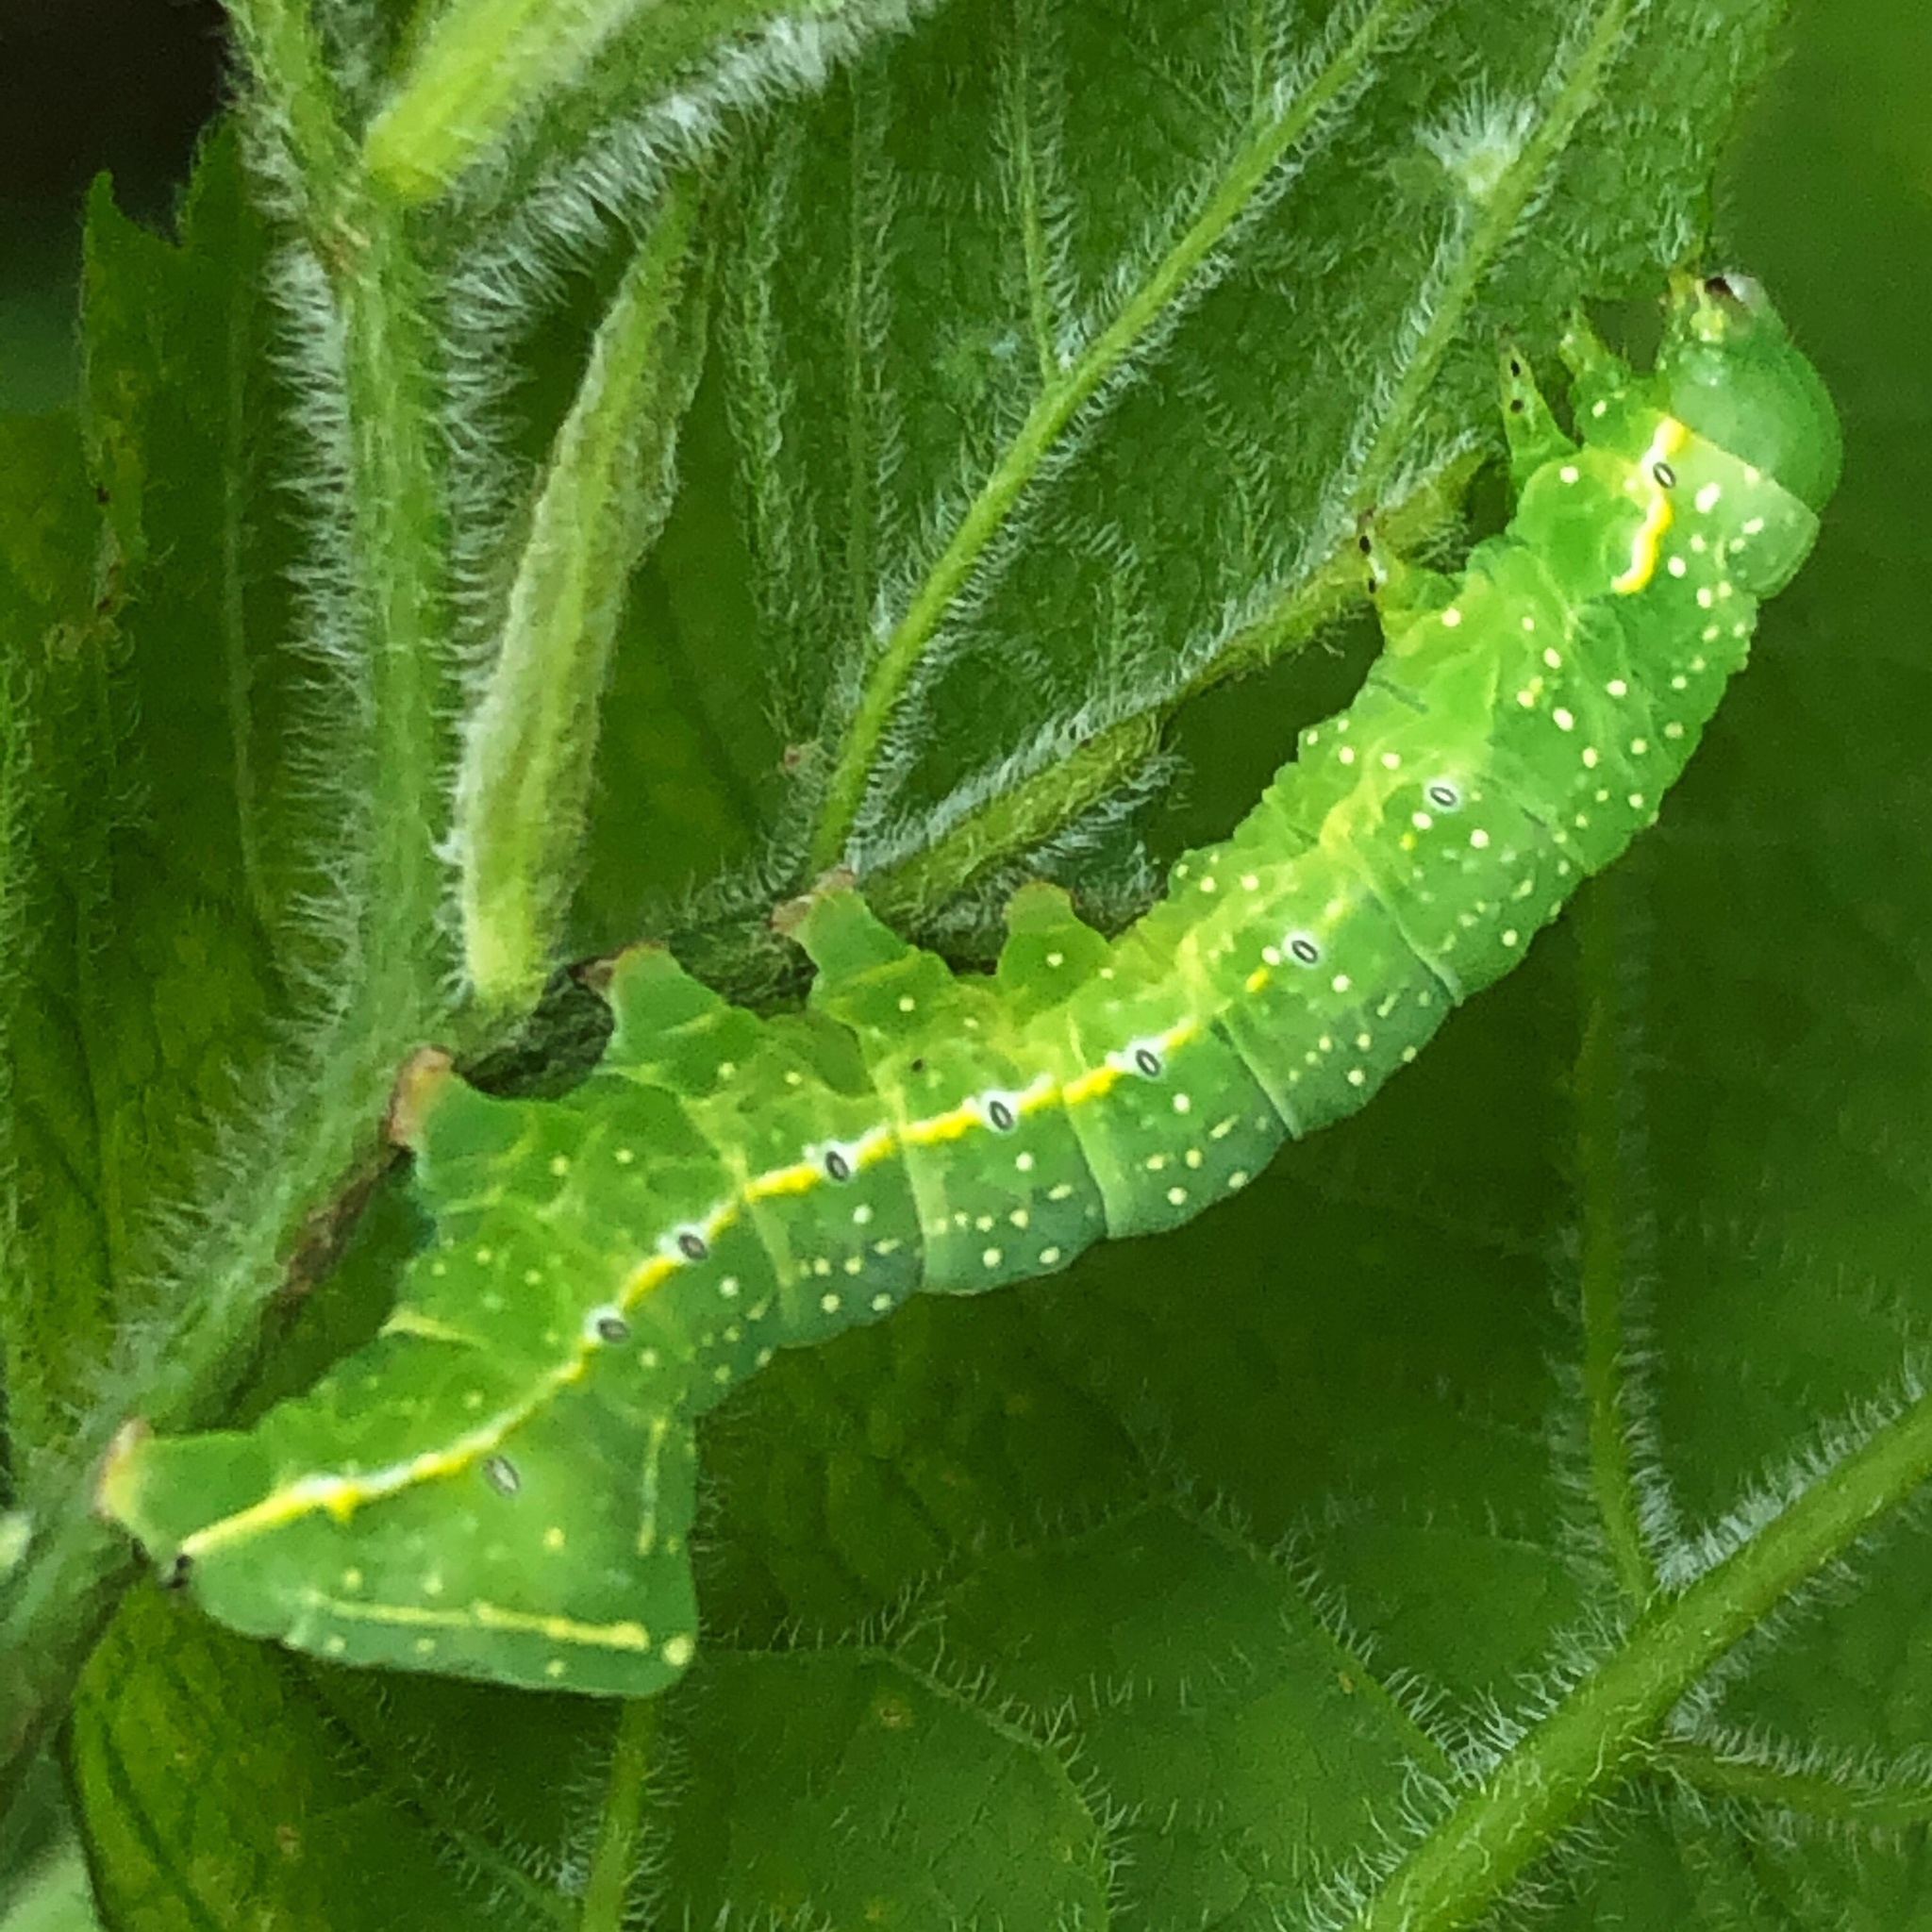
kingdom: Animalia
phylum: Arthropoda
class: Insecta
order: Lepidoptera
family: Noctuidae
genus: Amphipyra
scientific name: Amphipyra pyramidoides
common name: American copper underwing
